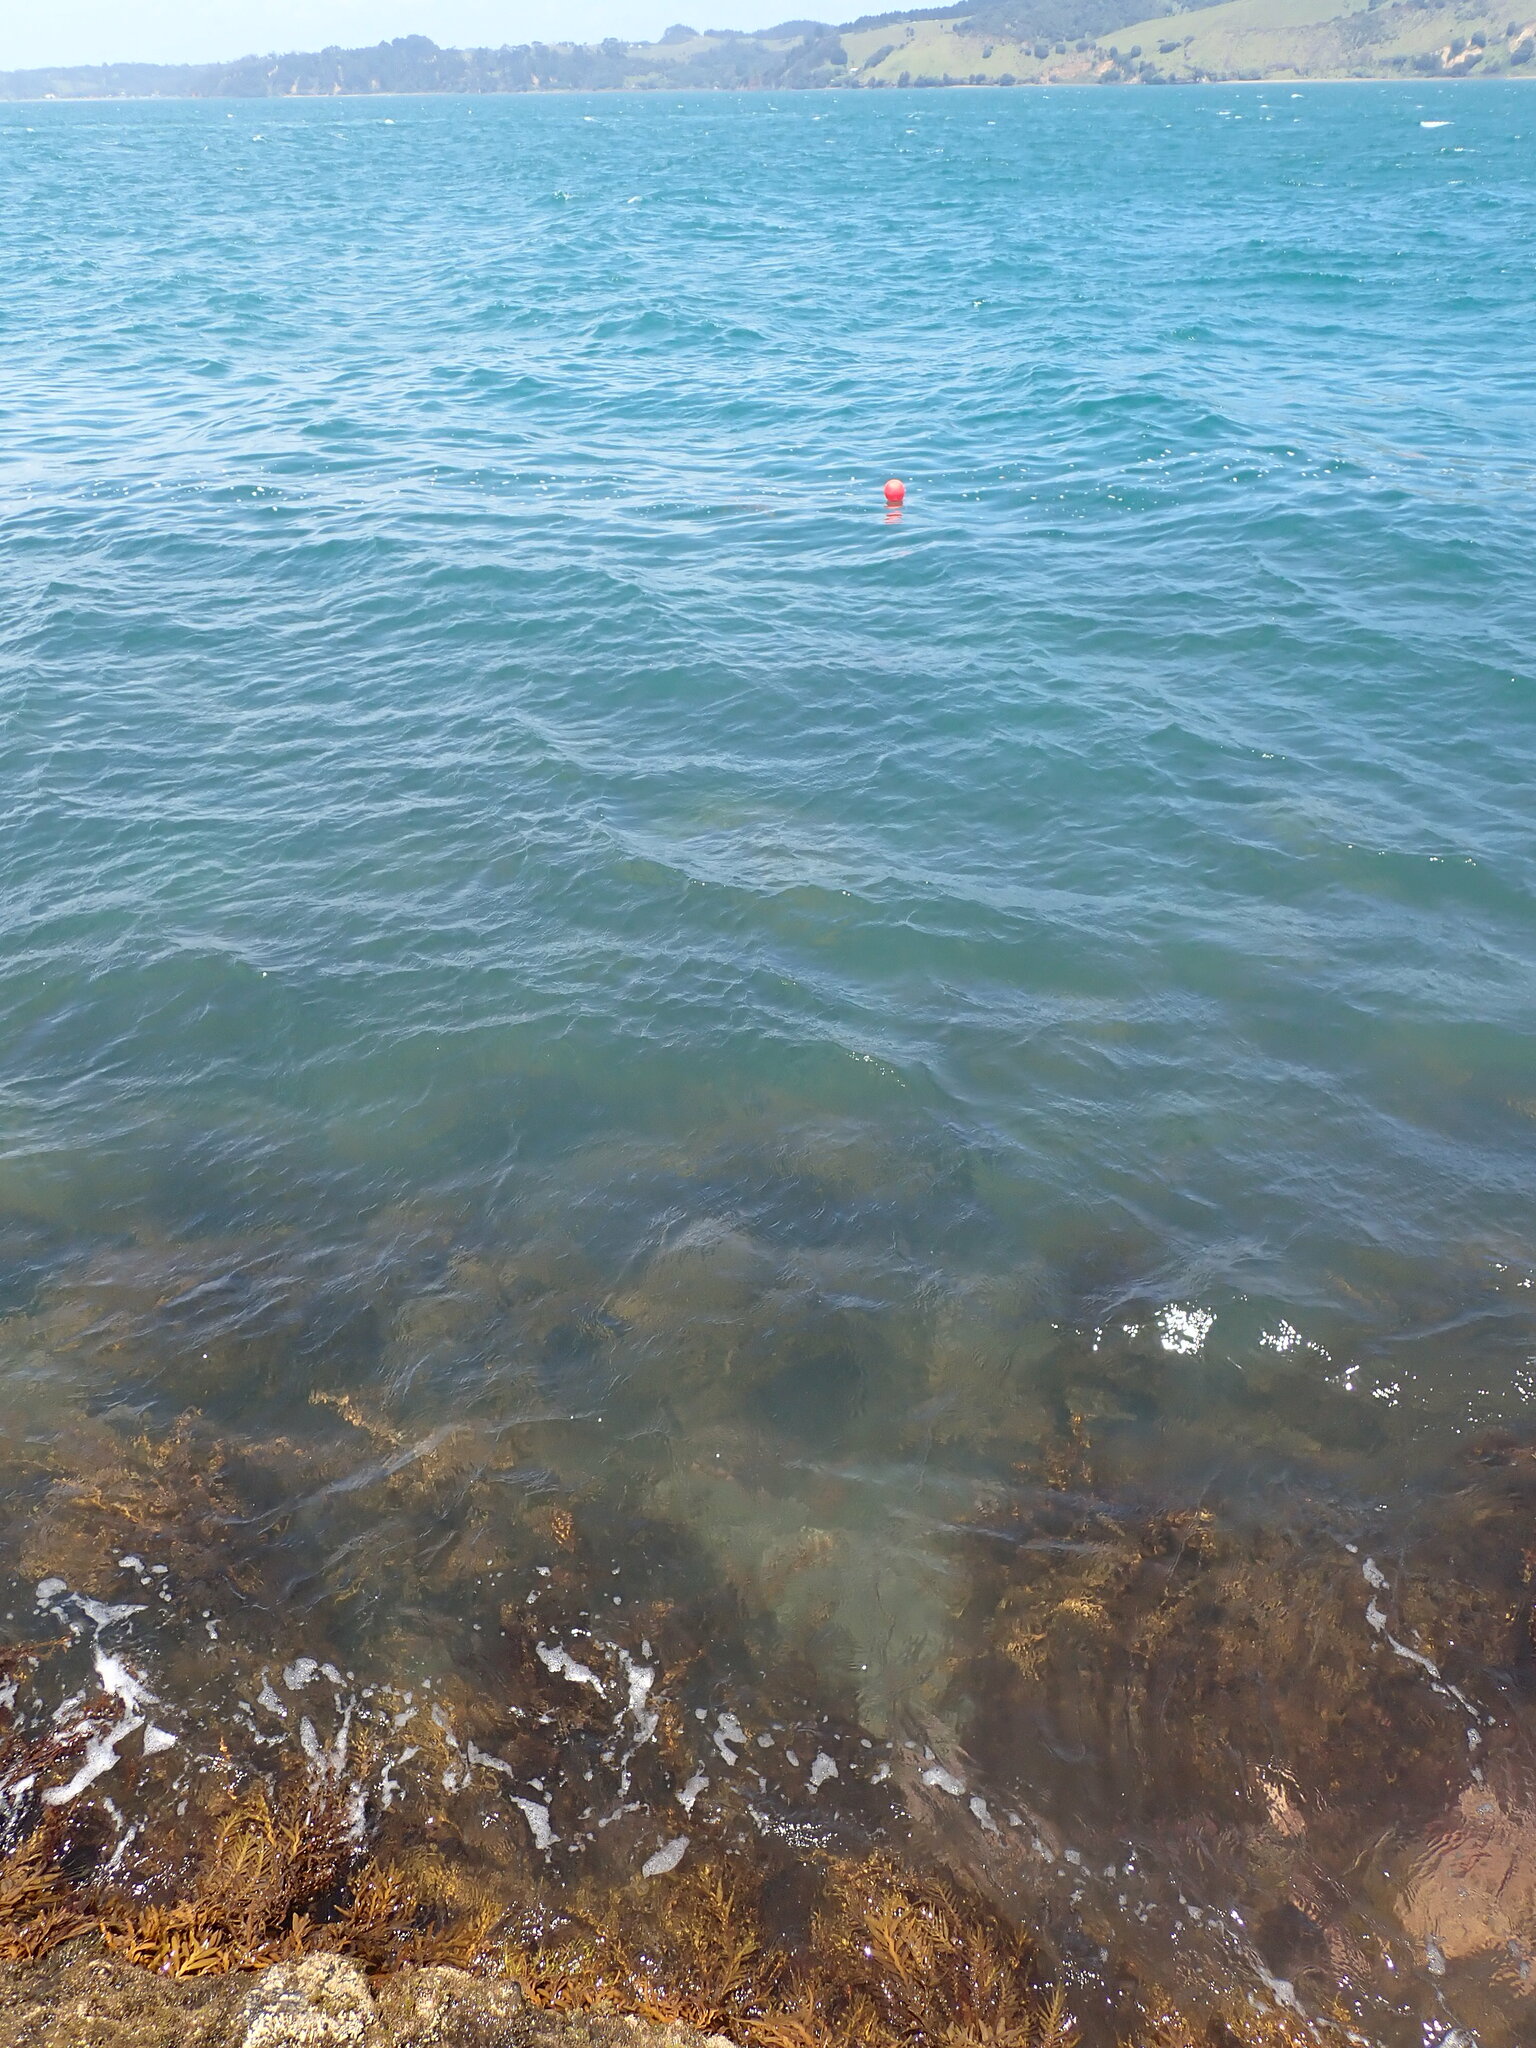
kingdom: Chromista
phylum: Ochrophyta
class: Phaeophyceae
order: Fucales
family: Sargassaceae
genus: Carpophyllum
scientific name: Carpophyllum maschalocarpum
